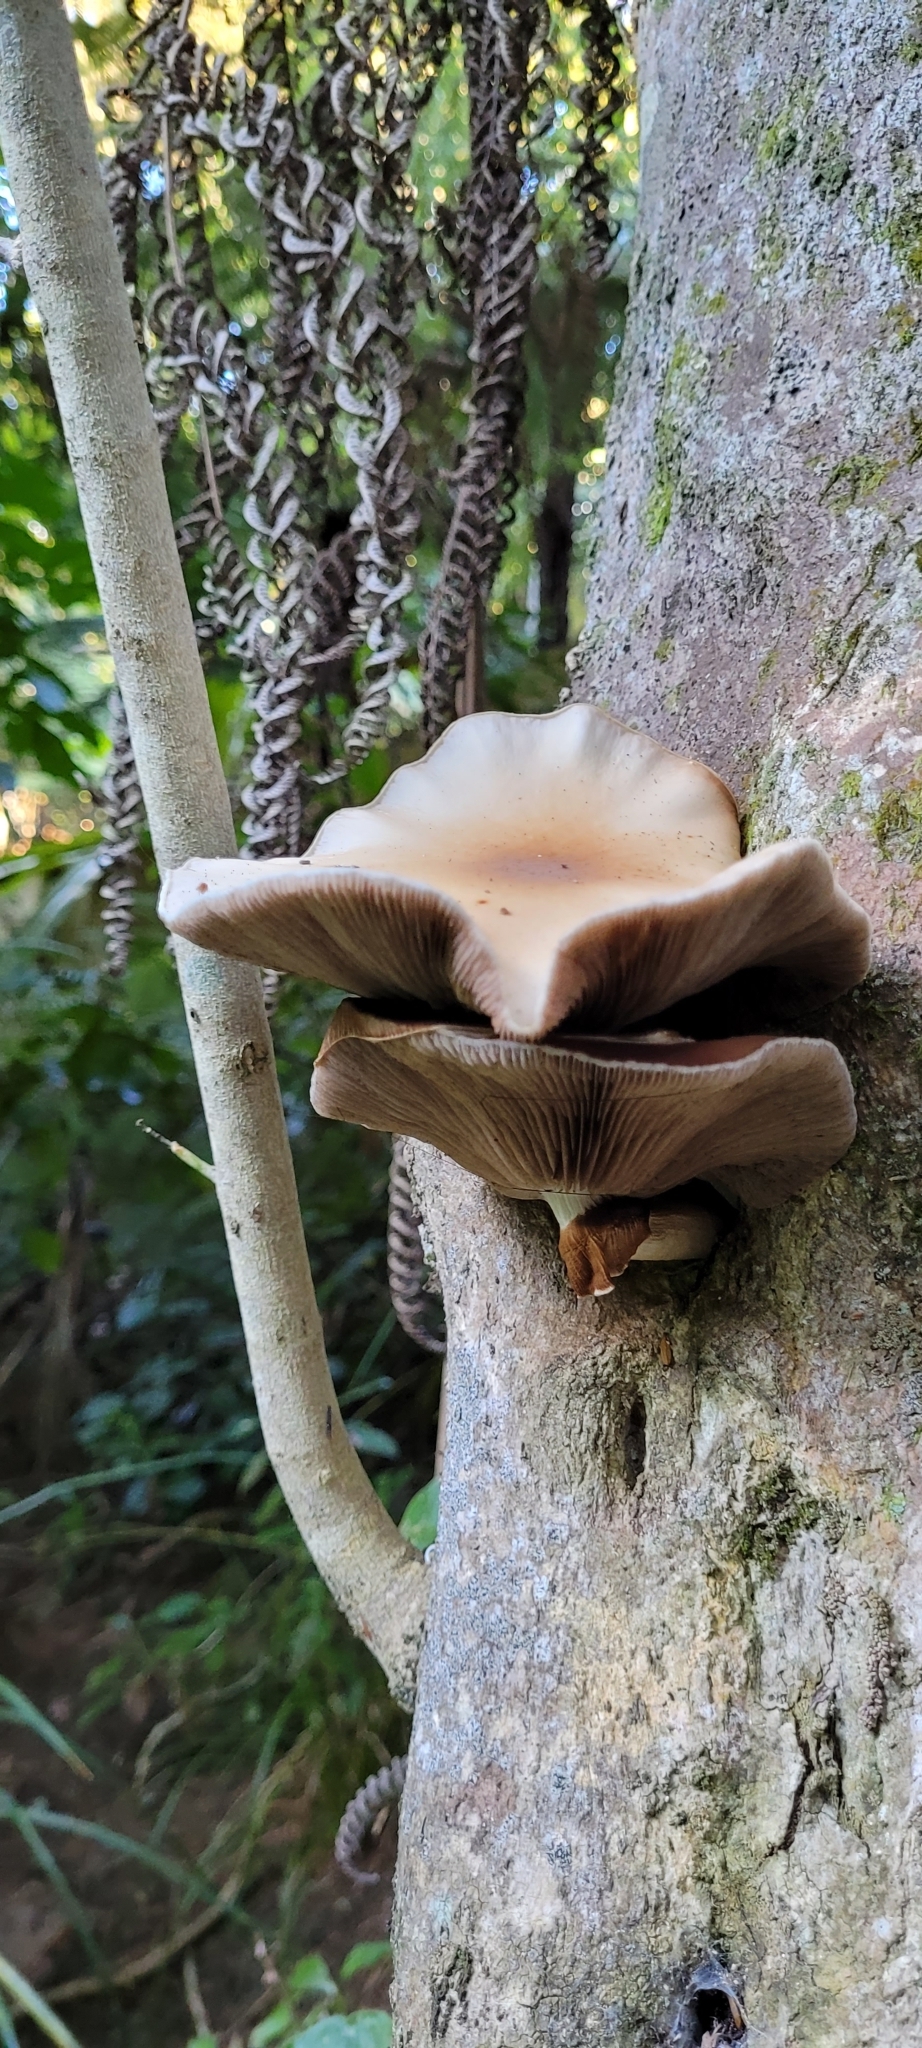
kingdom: Fungi
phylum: Basidiomycota
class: Agaricomycetes
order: Agaricales
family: Tubariaceae
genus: Cyclocybe
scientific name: Cyclocybe parasitica
